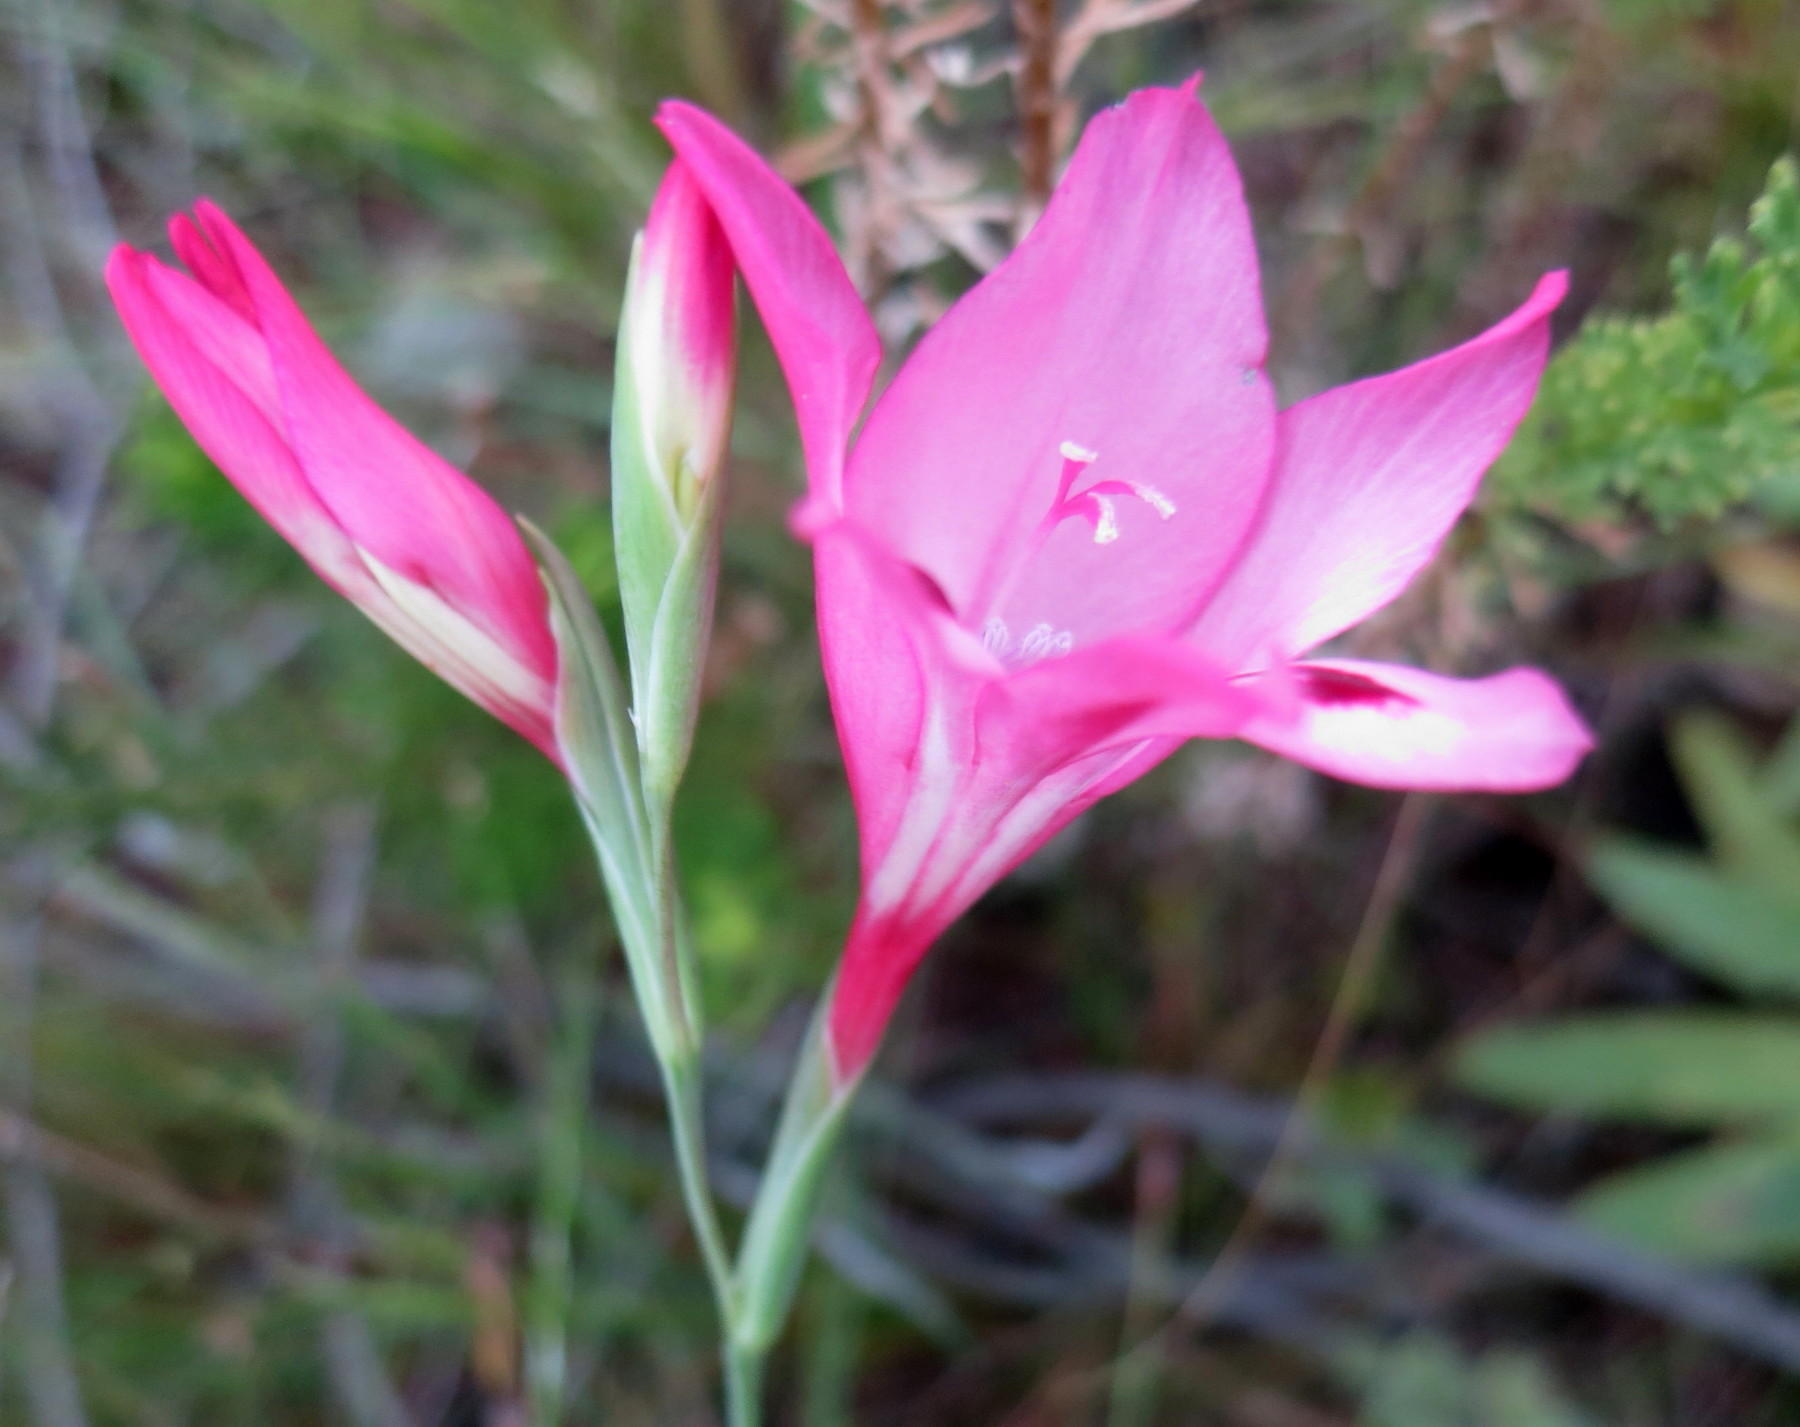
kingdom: Plantae
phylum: Tracheophyta
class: Liliopsida
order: Asparagales
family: Iridaceae
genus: Gladiolus
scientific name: Gladiolus crispulatus
